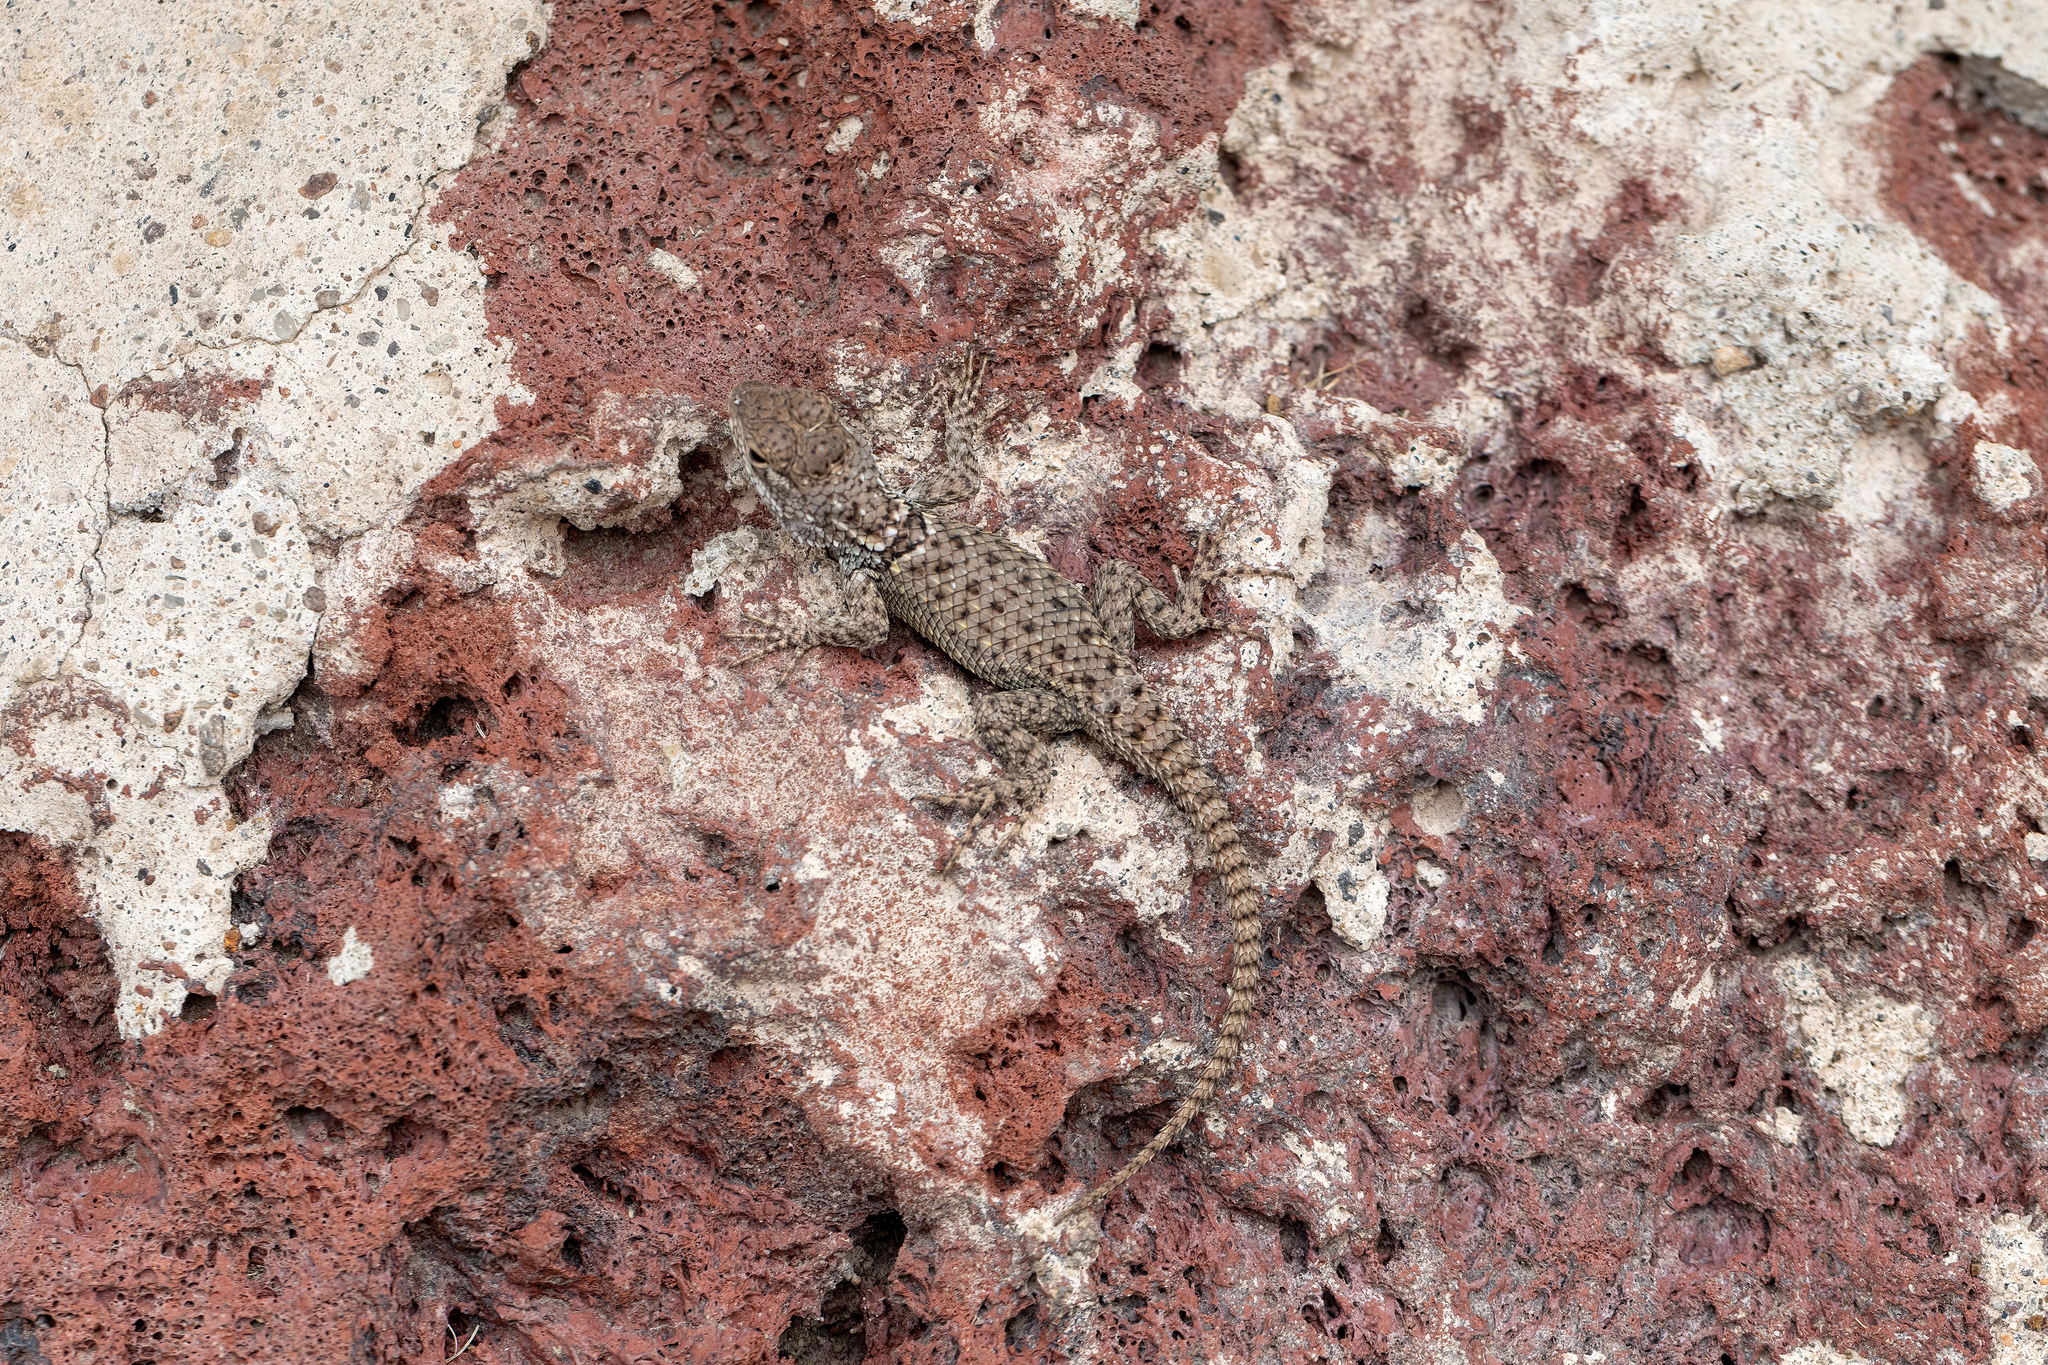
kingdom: Animalia
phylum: Chordata
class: Squamata
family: Phrynosomatidae
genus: Sceloporus
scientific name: Sceloporus torquatus
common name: Central plateau torquate lizard [melanogaster]
